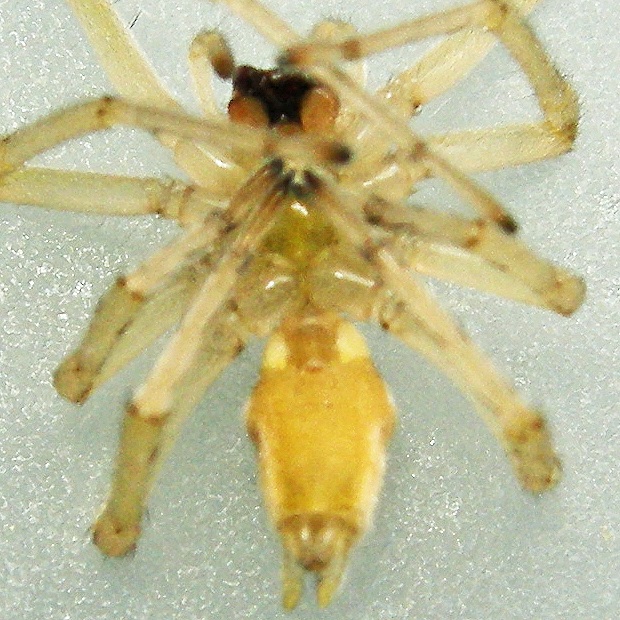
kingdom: Animalia
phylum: Arthropoda
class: Arachnida
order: Araneae
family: Cheiracanthiidae
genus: Cheiracanthium
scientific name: Cheiracanthium mildei
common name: Northern yellow sac spider
